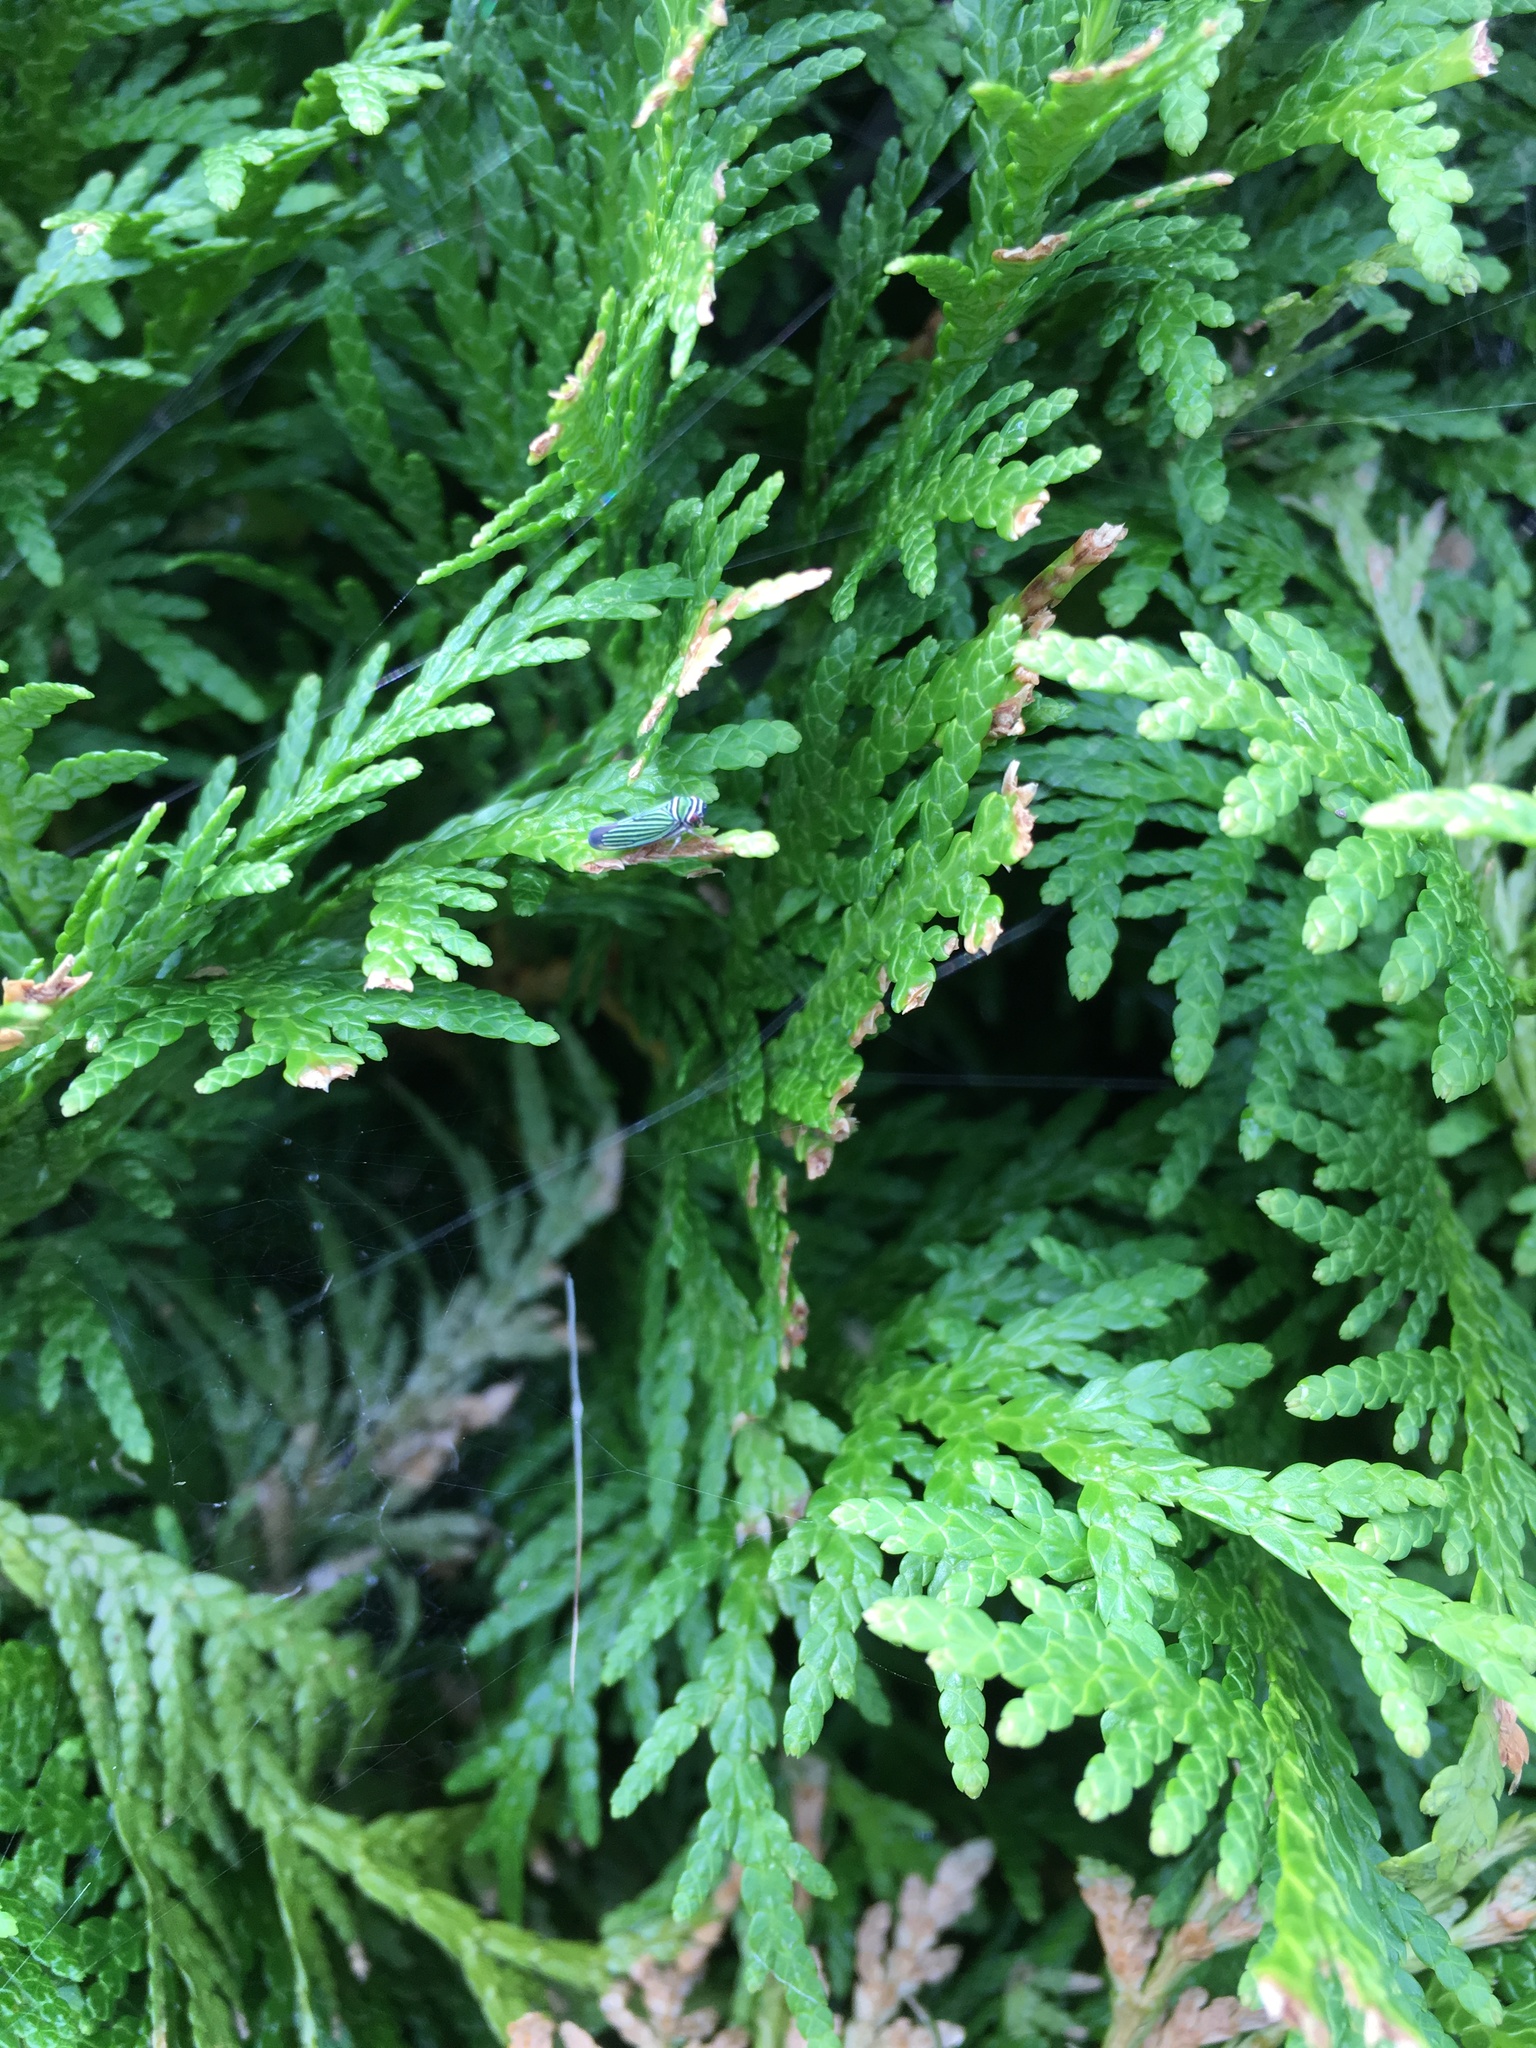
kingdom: Animalia
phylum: Arthropoda
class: Insecta
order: Hemiptera
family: Cicadellidae
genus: Tylozygus
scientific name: Tylozygus bifidus
